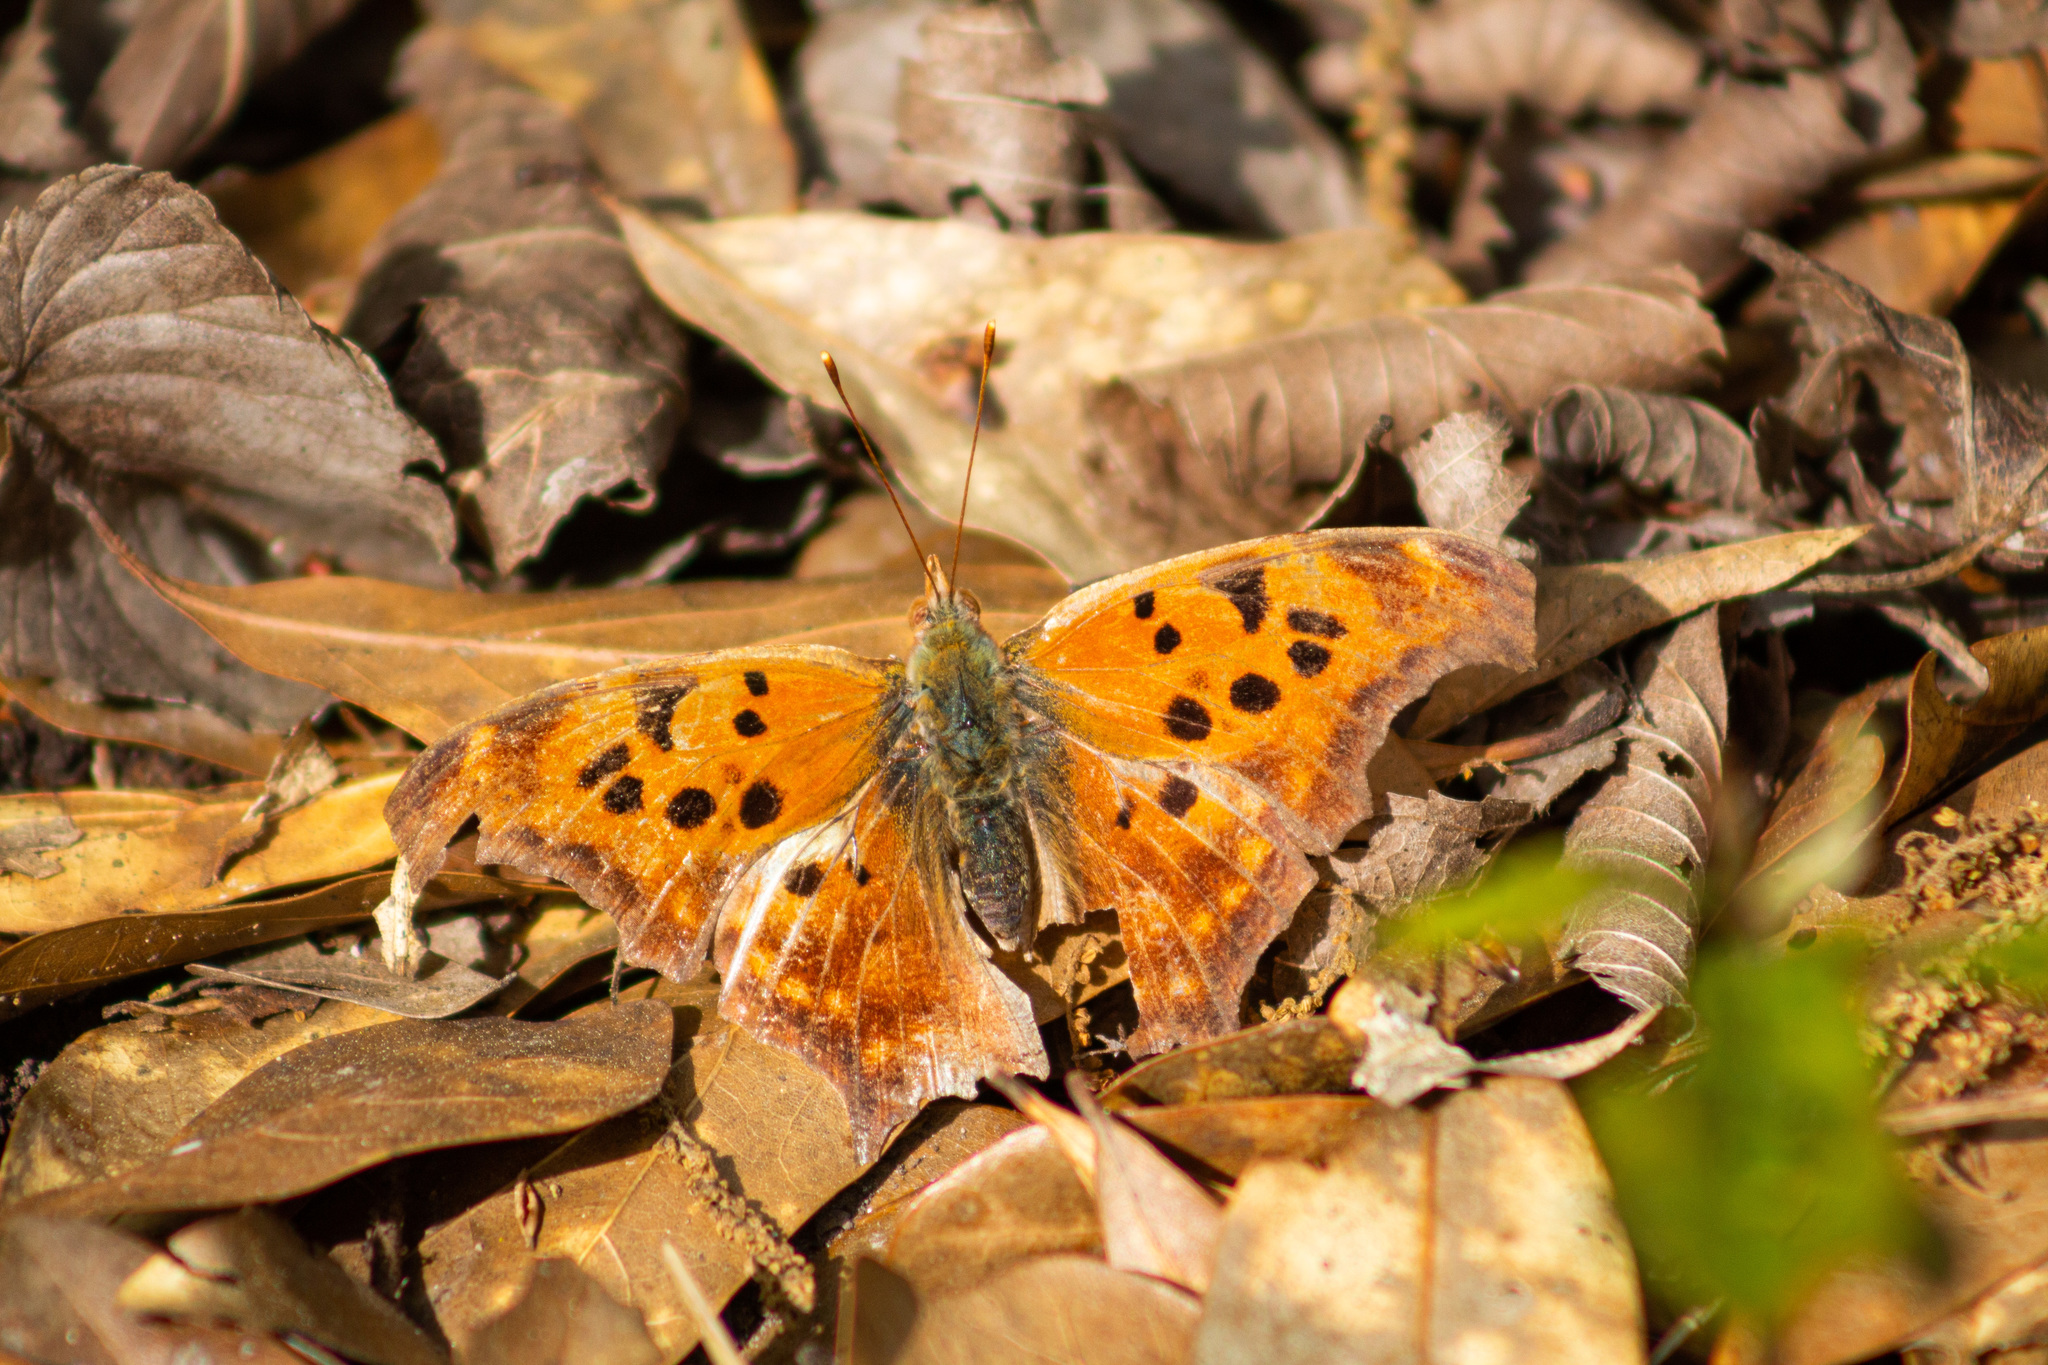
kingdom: Animalia
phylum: Arthropoda
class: Insecta
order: Lepidoptera
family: Nymphalidae
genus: Polygonia
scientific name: Polygonia interrogationis
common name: Question mark
